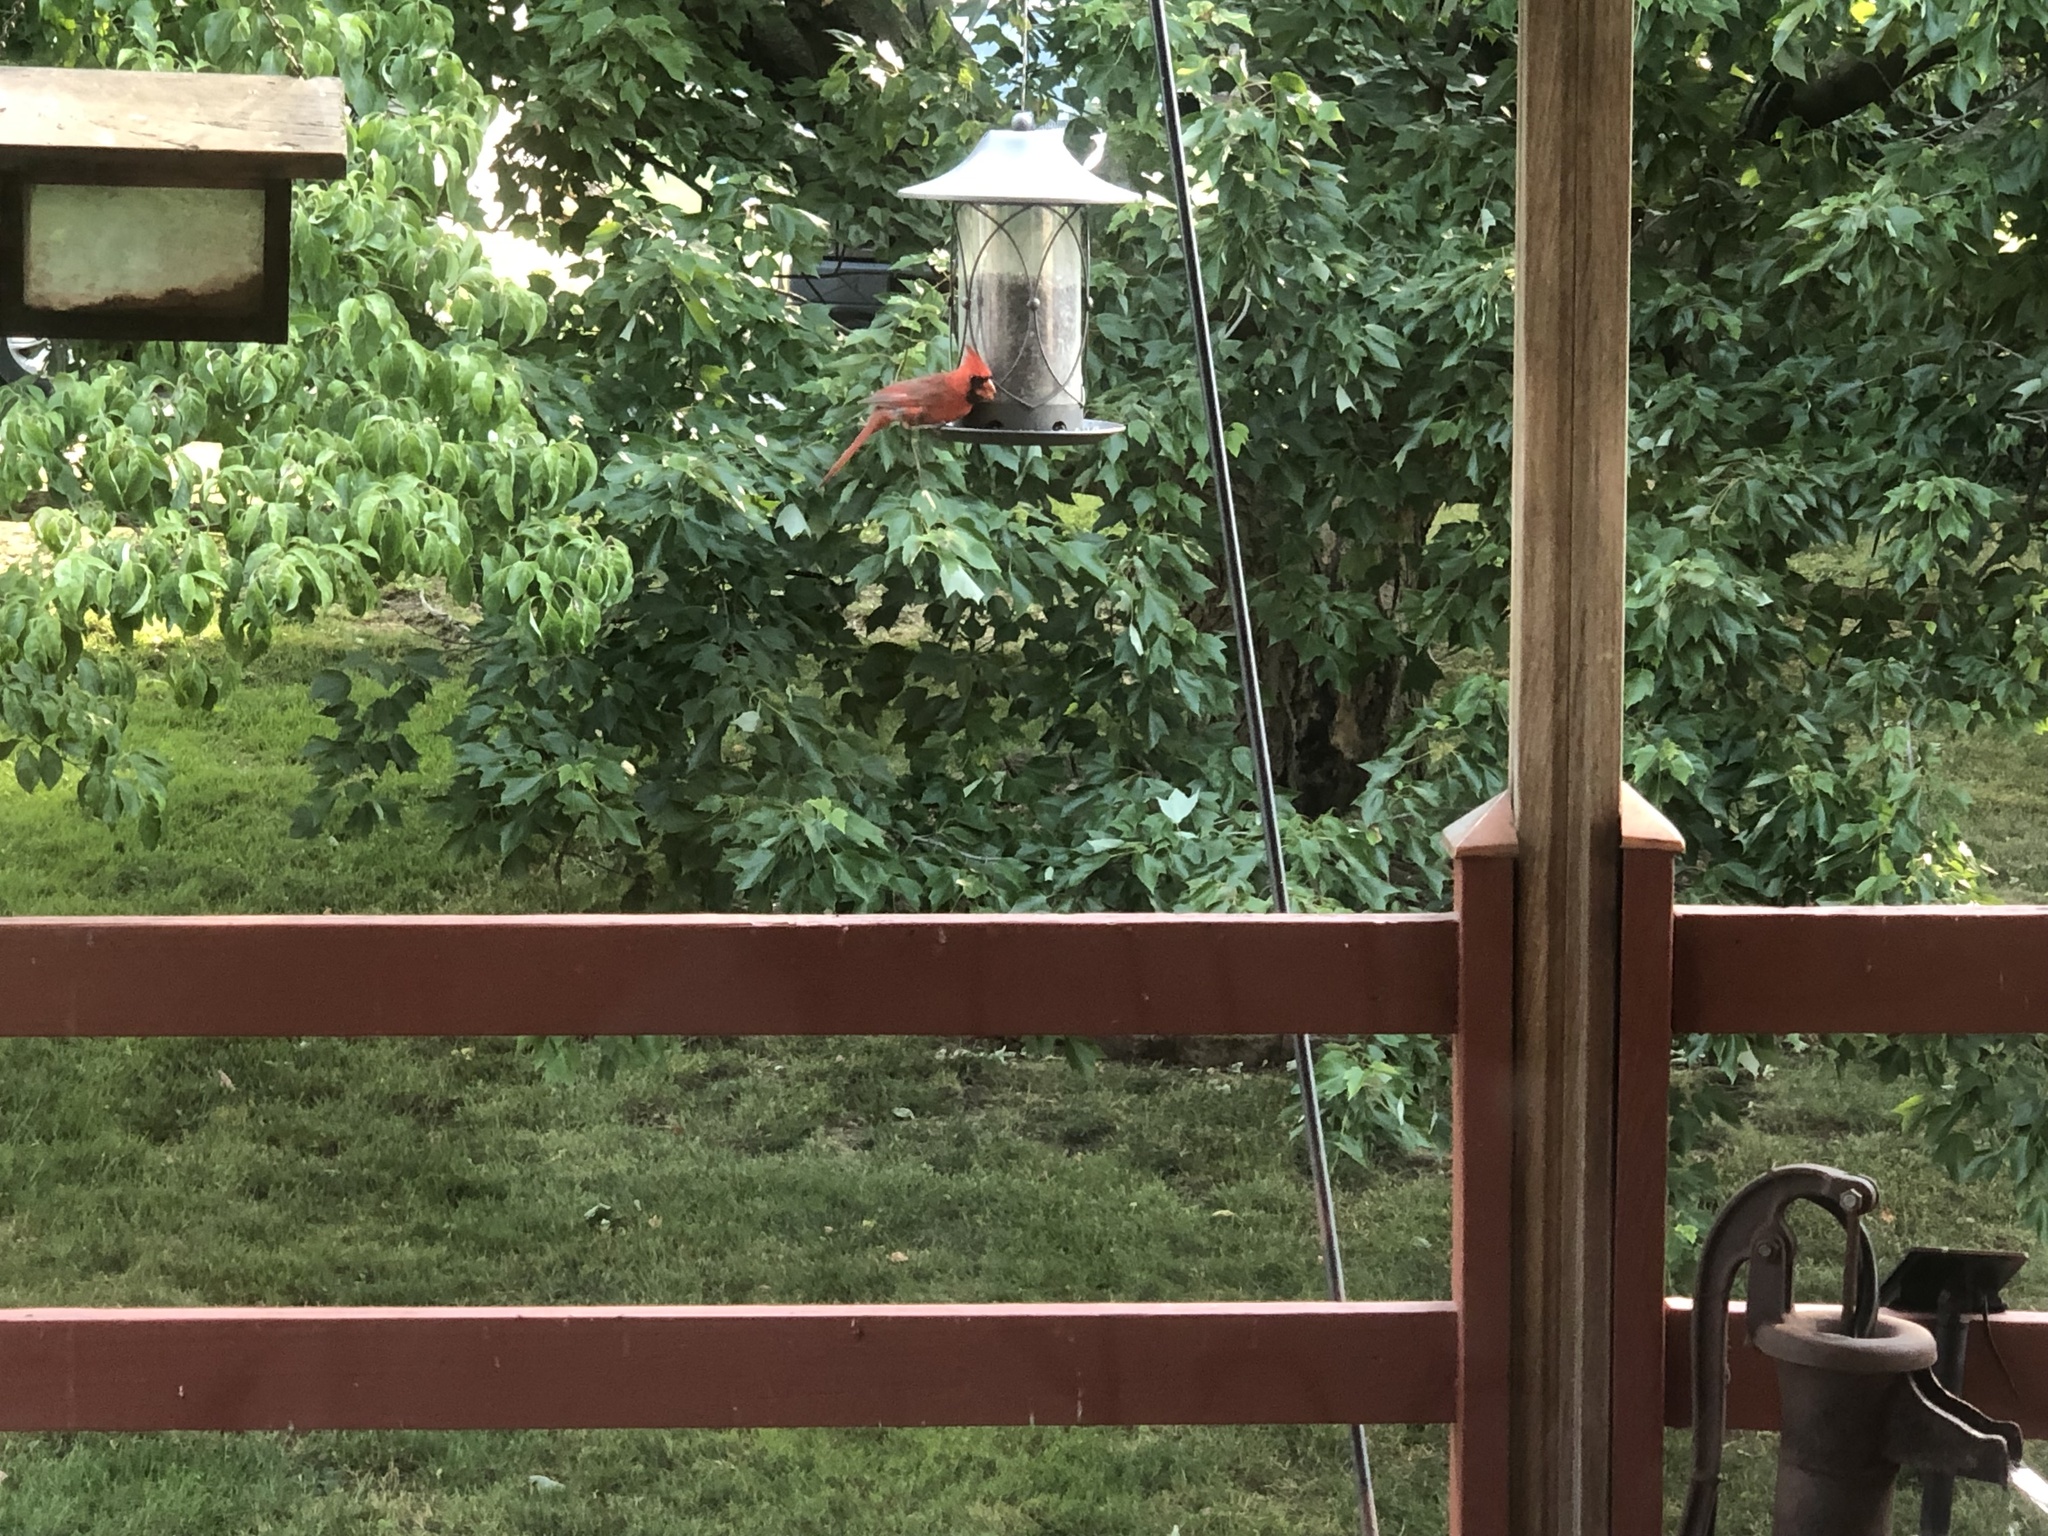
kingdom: Animalia
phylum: Chordata
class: Aves
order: Passeriformes
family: Cardinalidae
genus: Cardinalis
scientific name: Cardinalis cardinalis
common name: Northern cardinal
